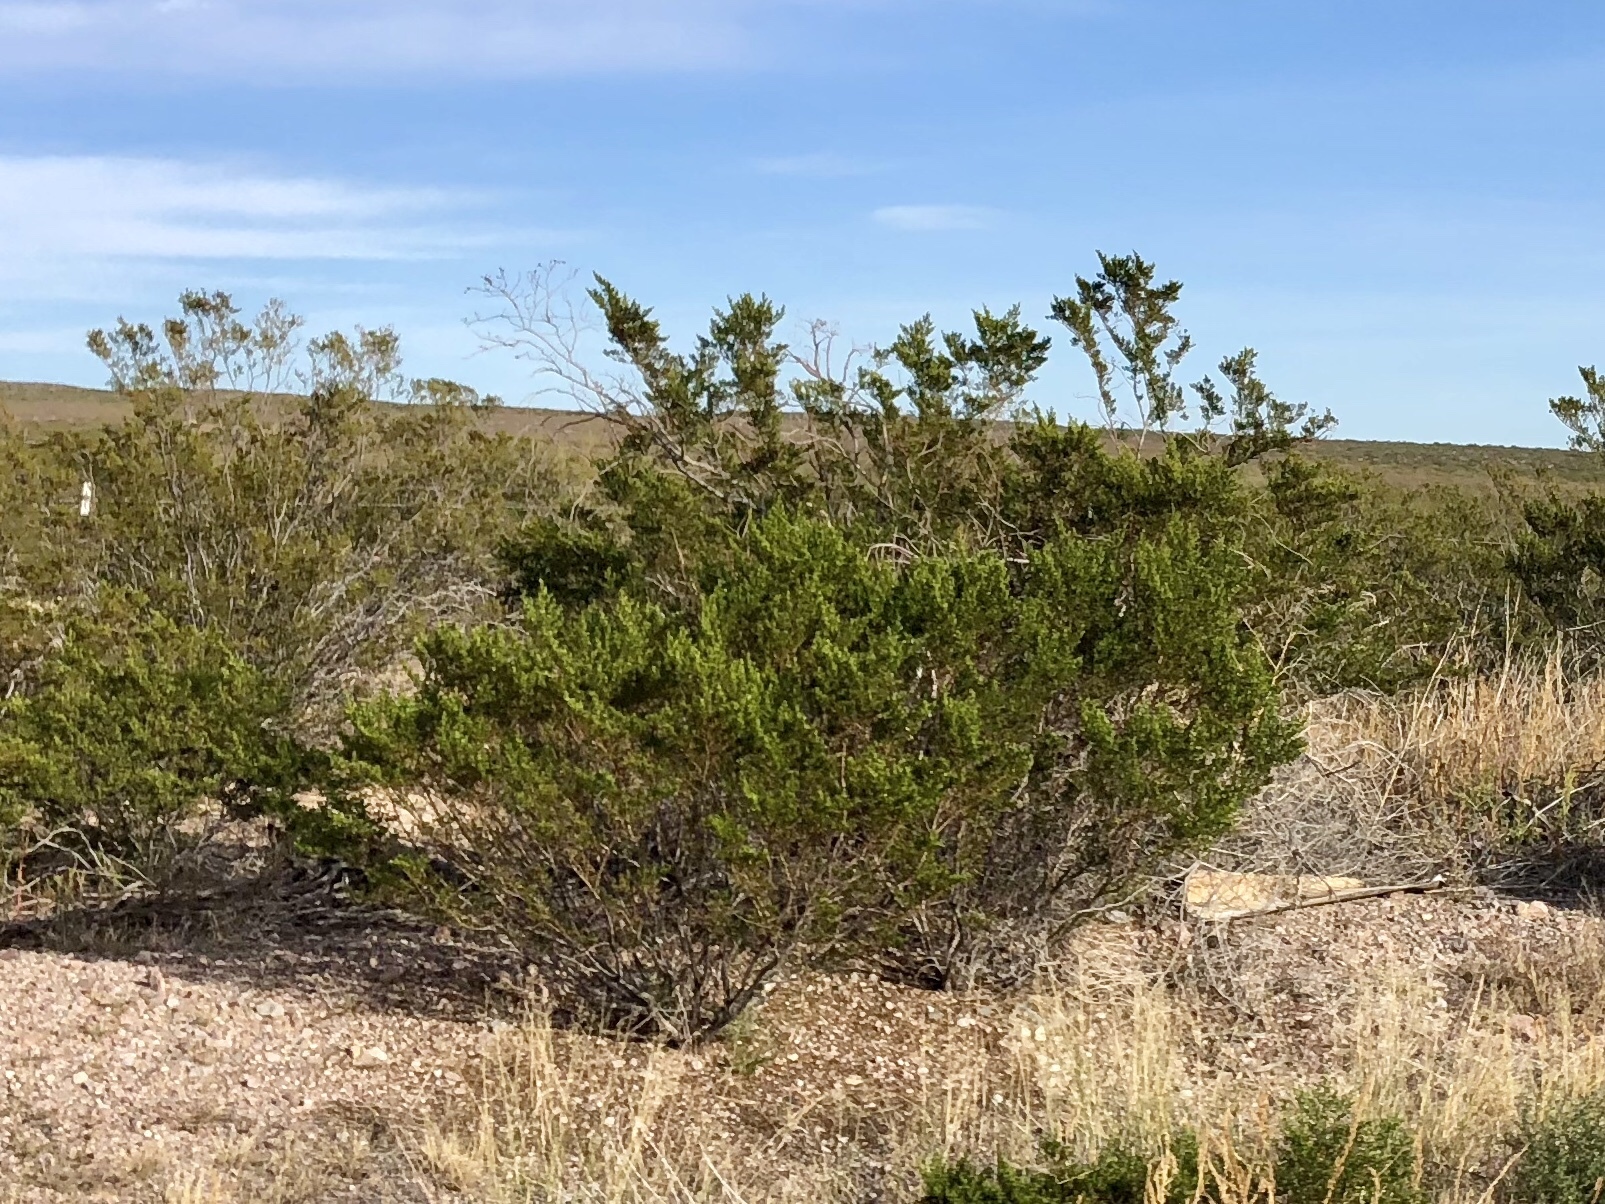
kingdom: Plantae
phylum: Tracheophyta
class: Magnoliopsida
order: Zygophyllales
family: Zygophyllaceae
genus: Larrea
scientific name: Larrea tridentata
